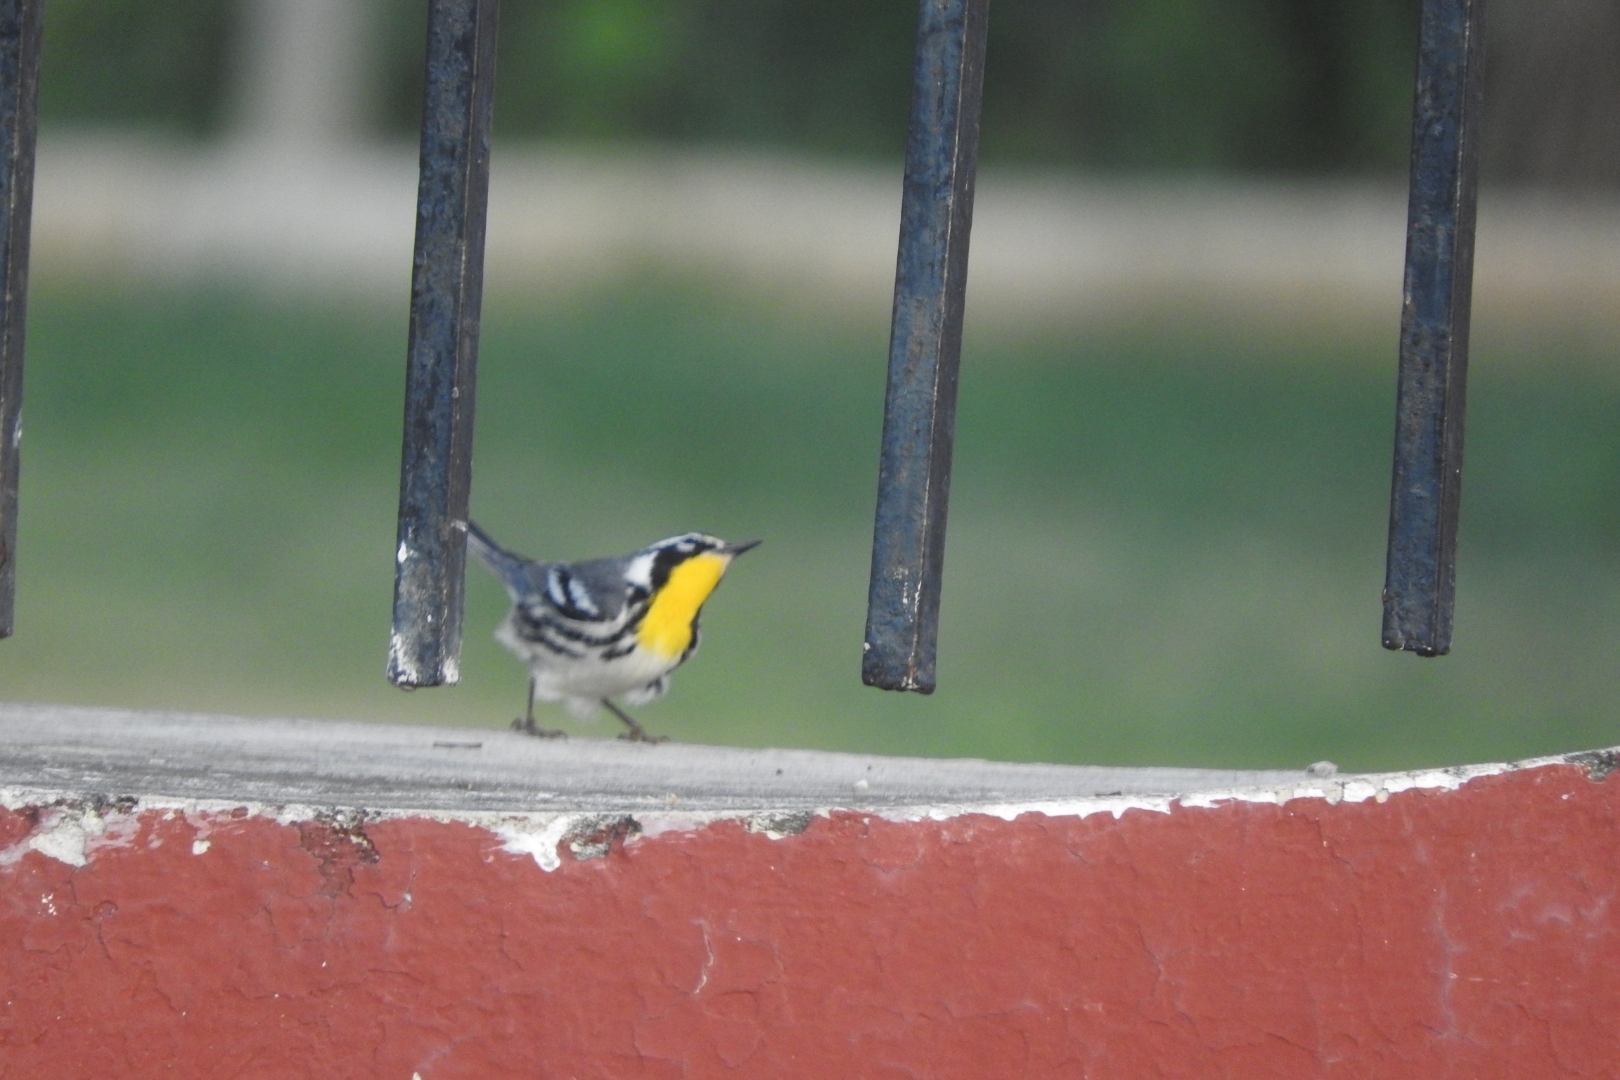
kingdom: Animalia
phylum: Chordata
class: Aves
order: Passeriformes
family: Parulidae
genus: Setophaga
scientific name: Setophaga dominica
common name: Yellow-throated warbler
